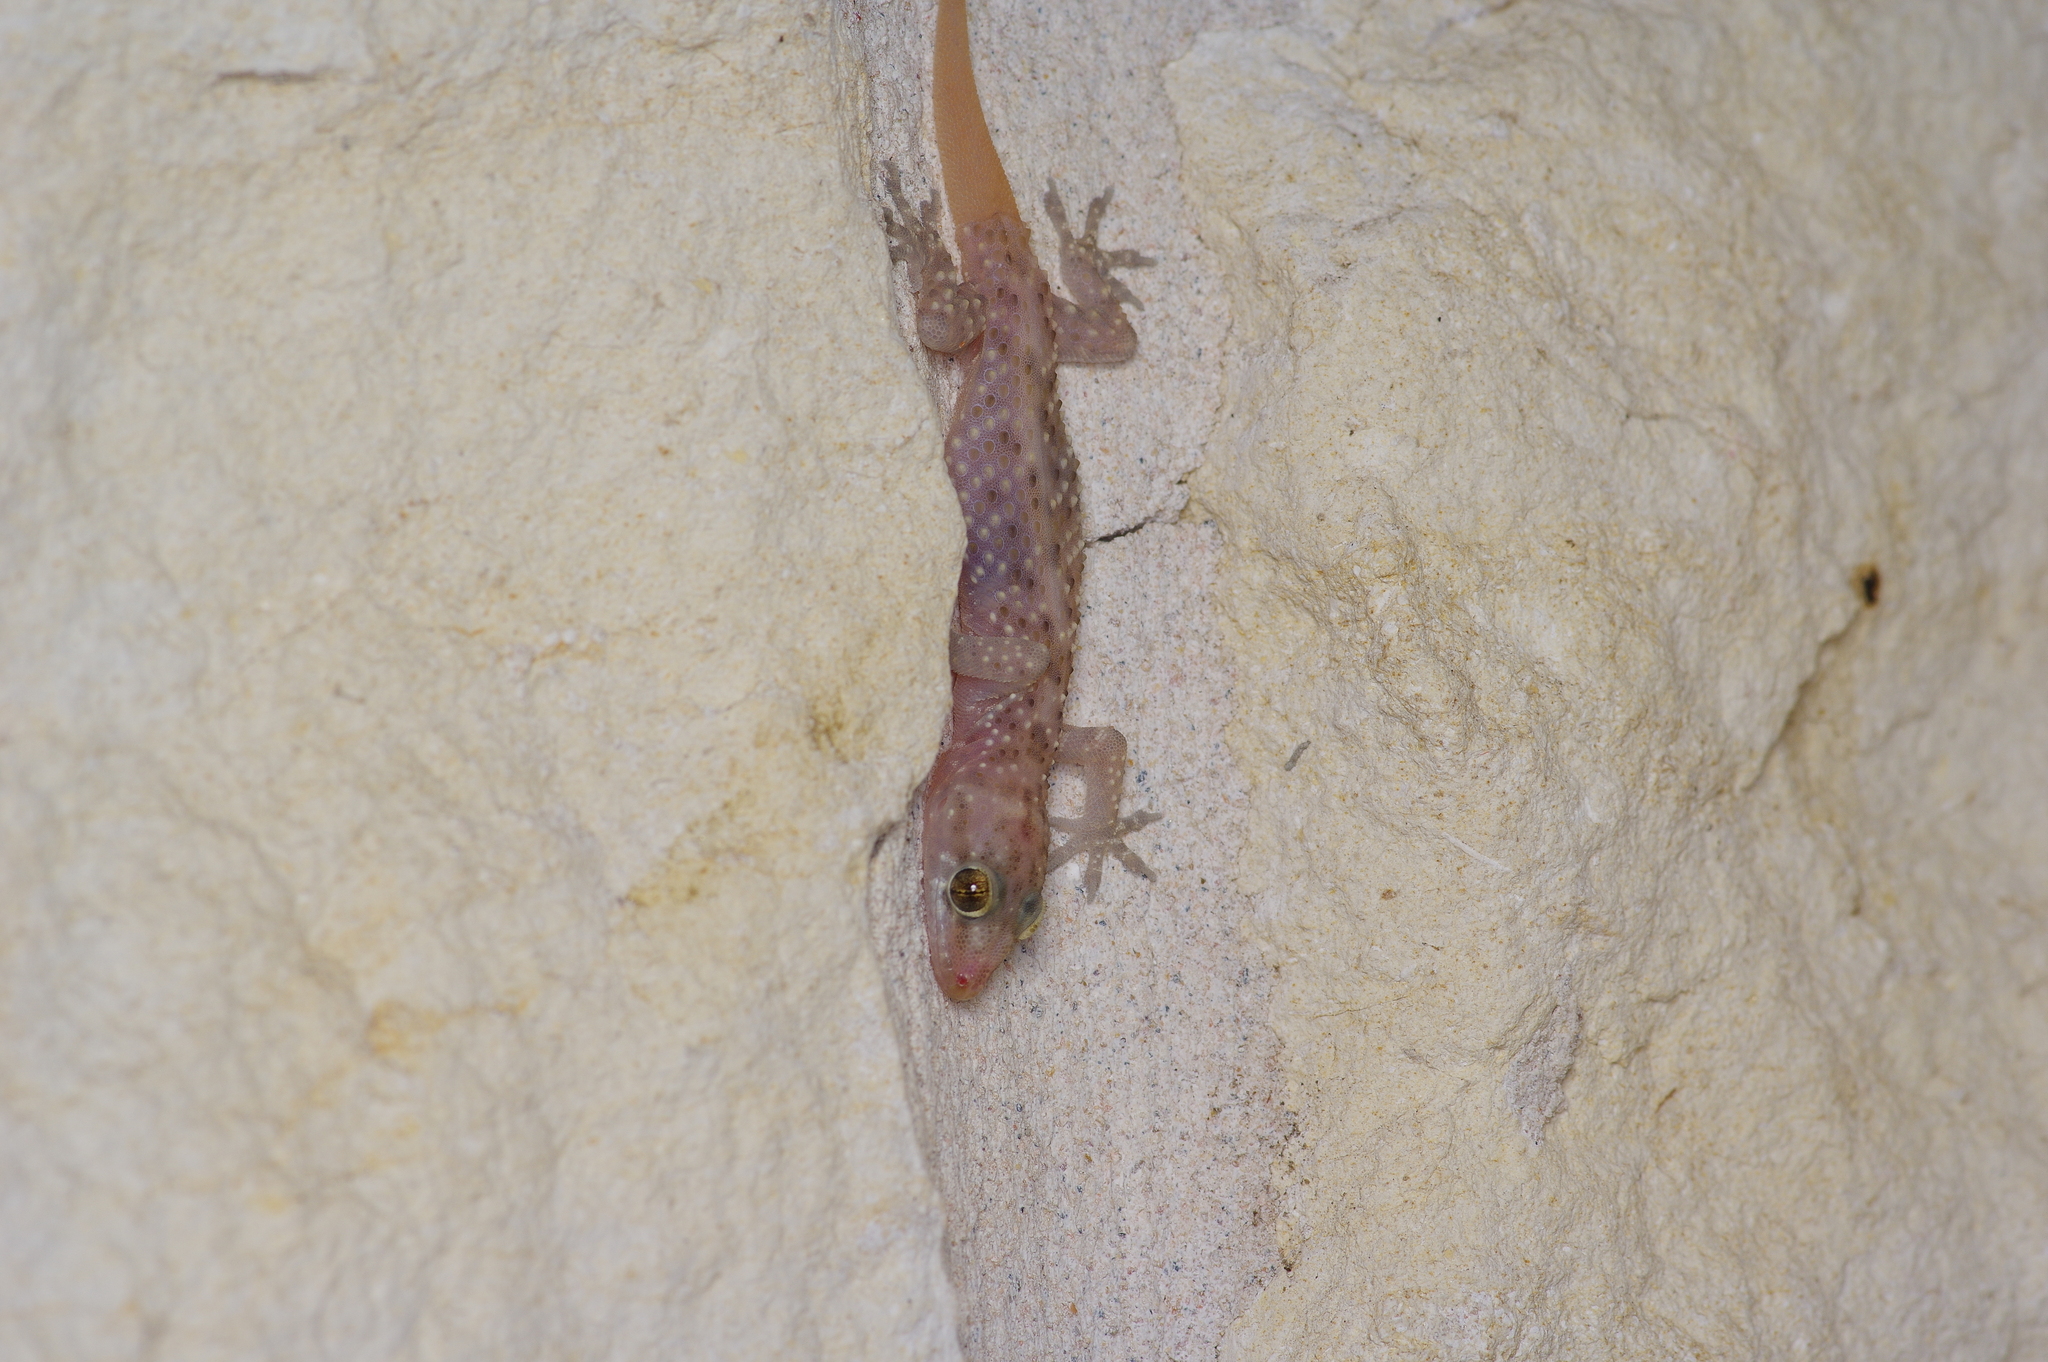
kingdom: Animalia
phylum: Chordata
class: Squamata
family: Gekkonidae
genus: Hemidactylus
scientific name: Hemidactylus turcicus
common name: Turkish gecko
